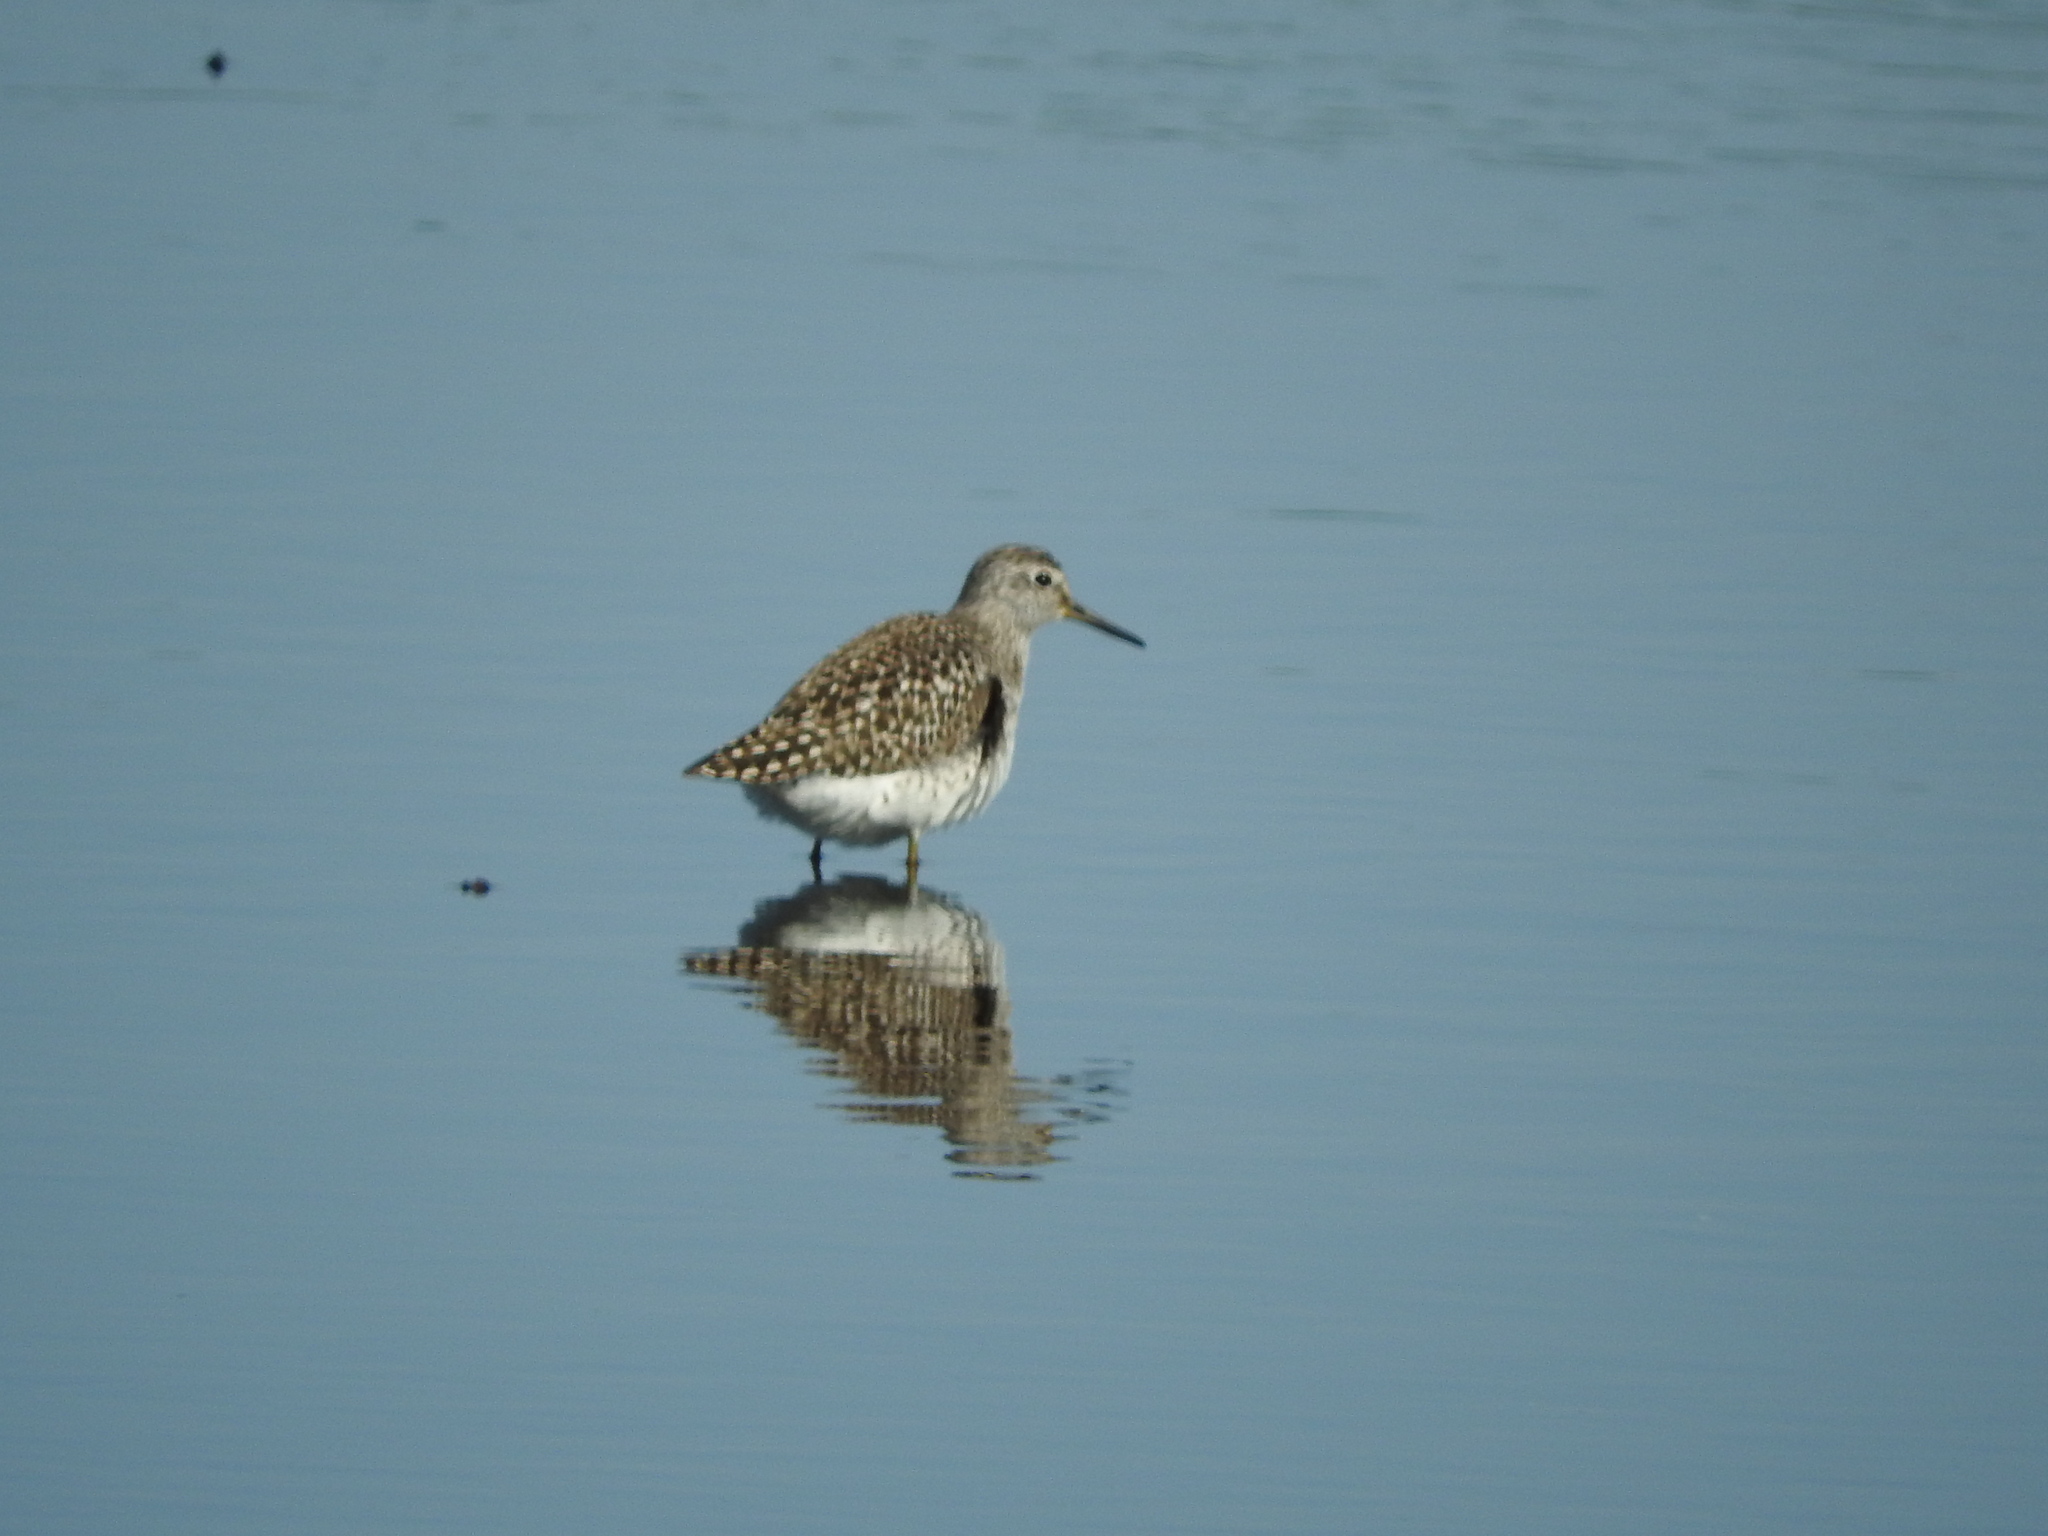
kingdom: Animalia
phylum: Chordata
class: Aves
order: Charadriiformes
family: Scolopacidae
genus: Tringa
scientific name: Tringa glareola
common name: Wood sandpiper
